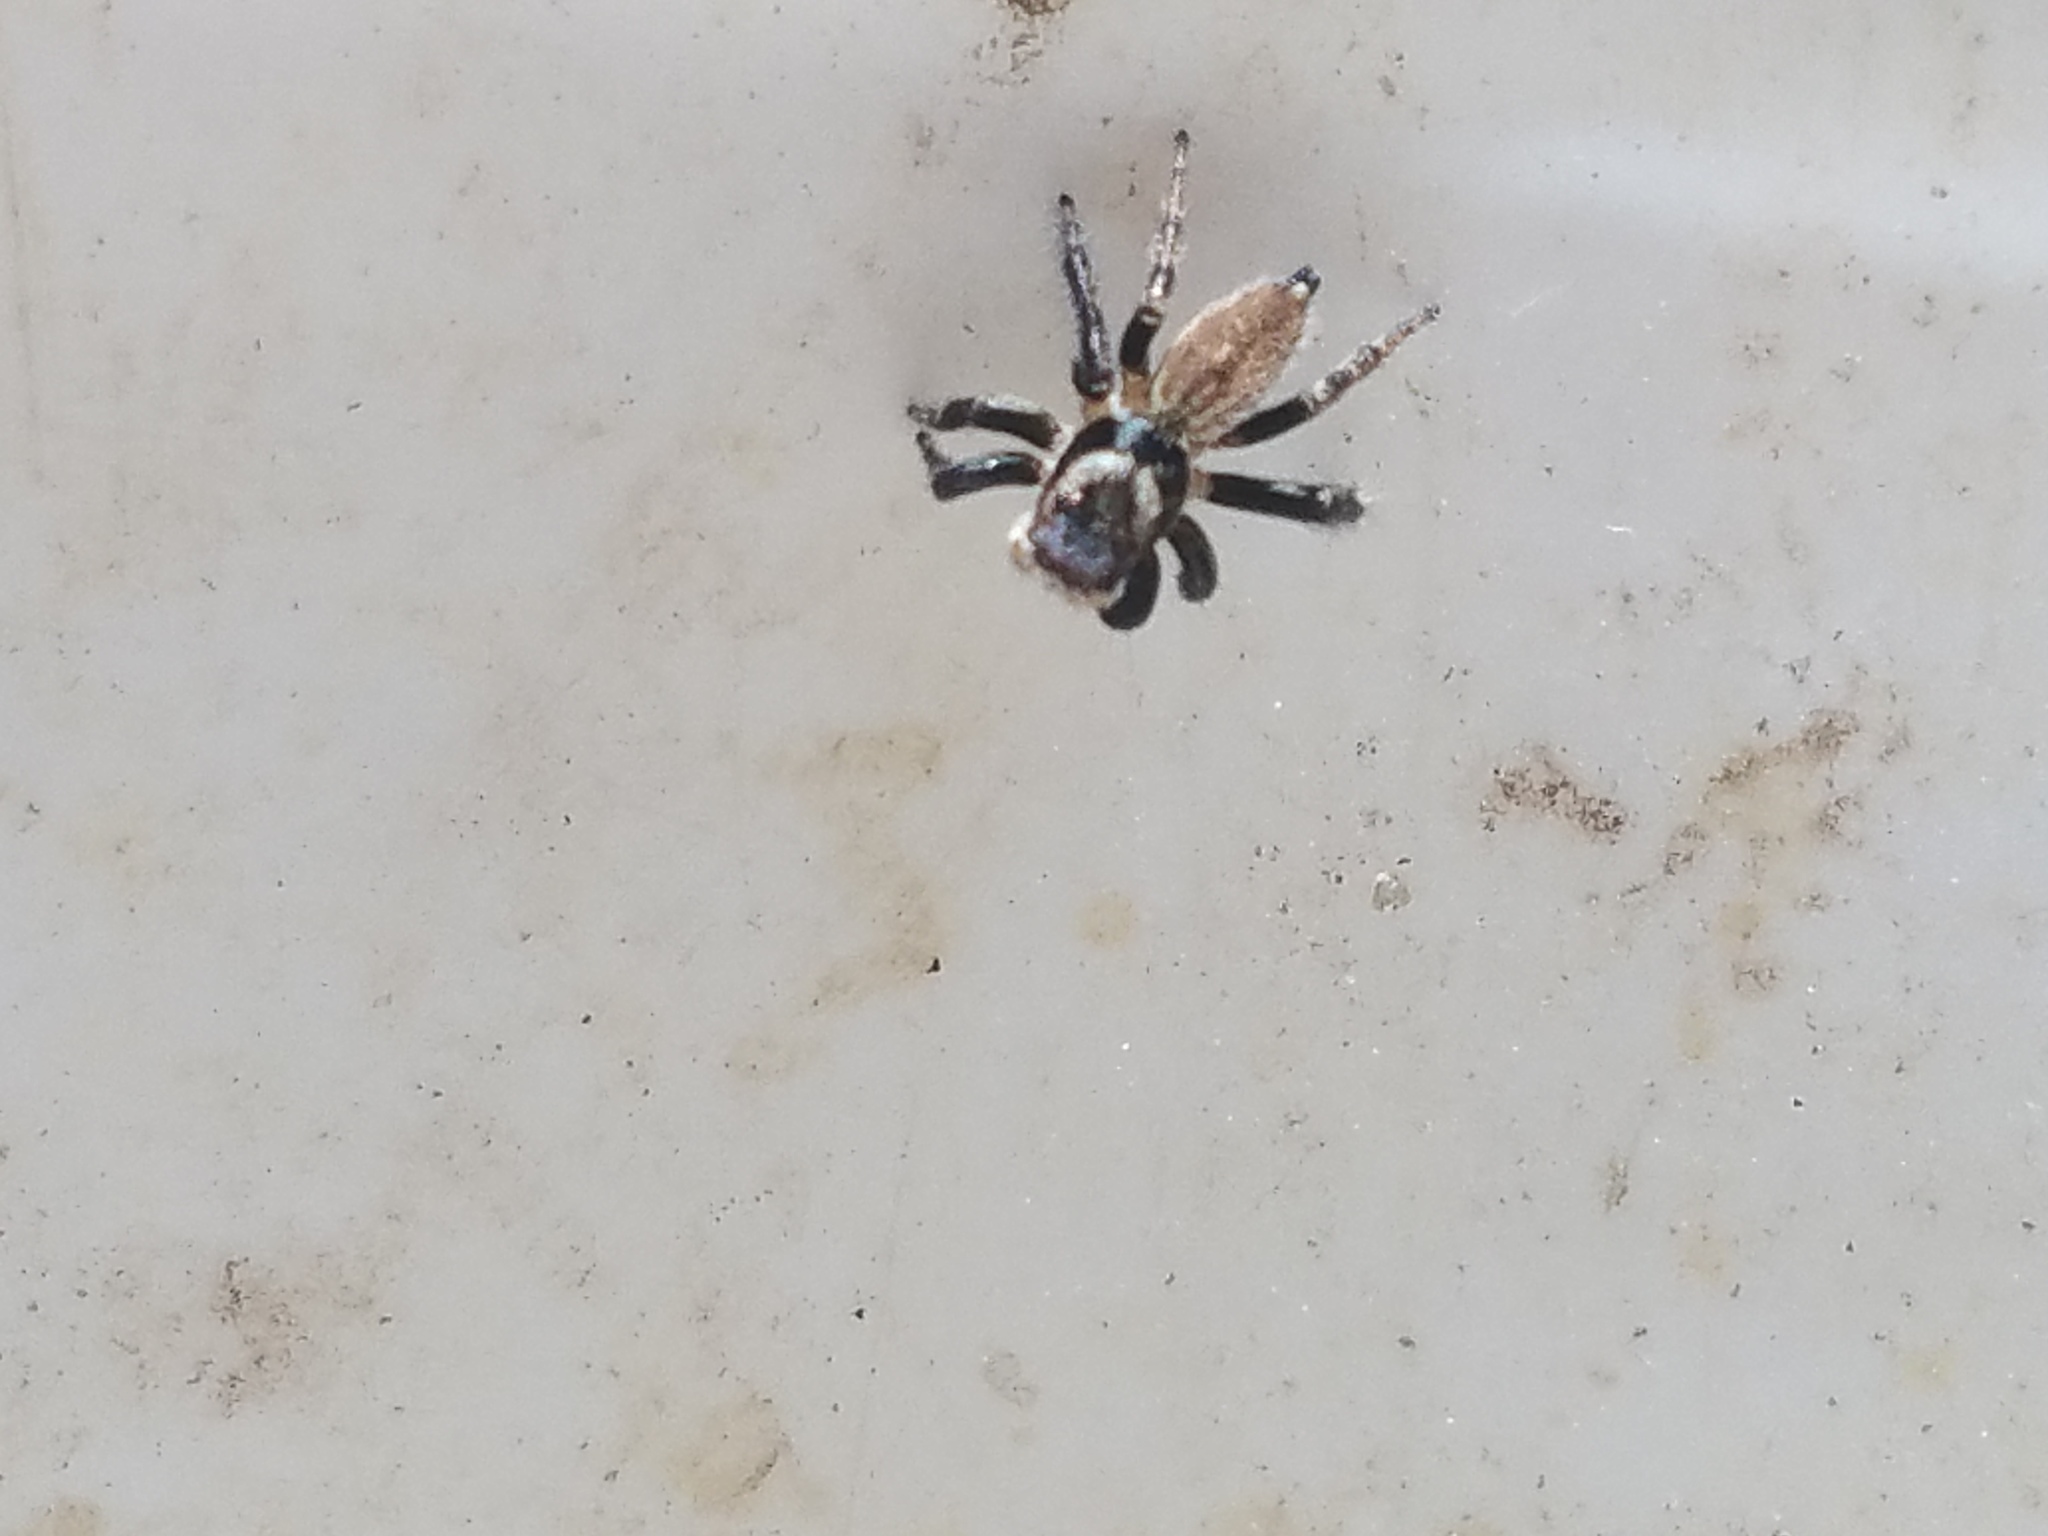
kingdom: Animalia
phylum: Arthropoda
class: Arachnida
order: Araneae
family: Salticidae
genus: Maratus
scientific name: Maratus griseus
